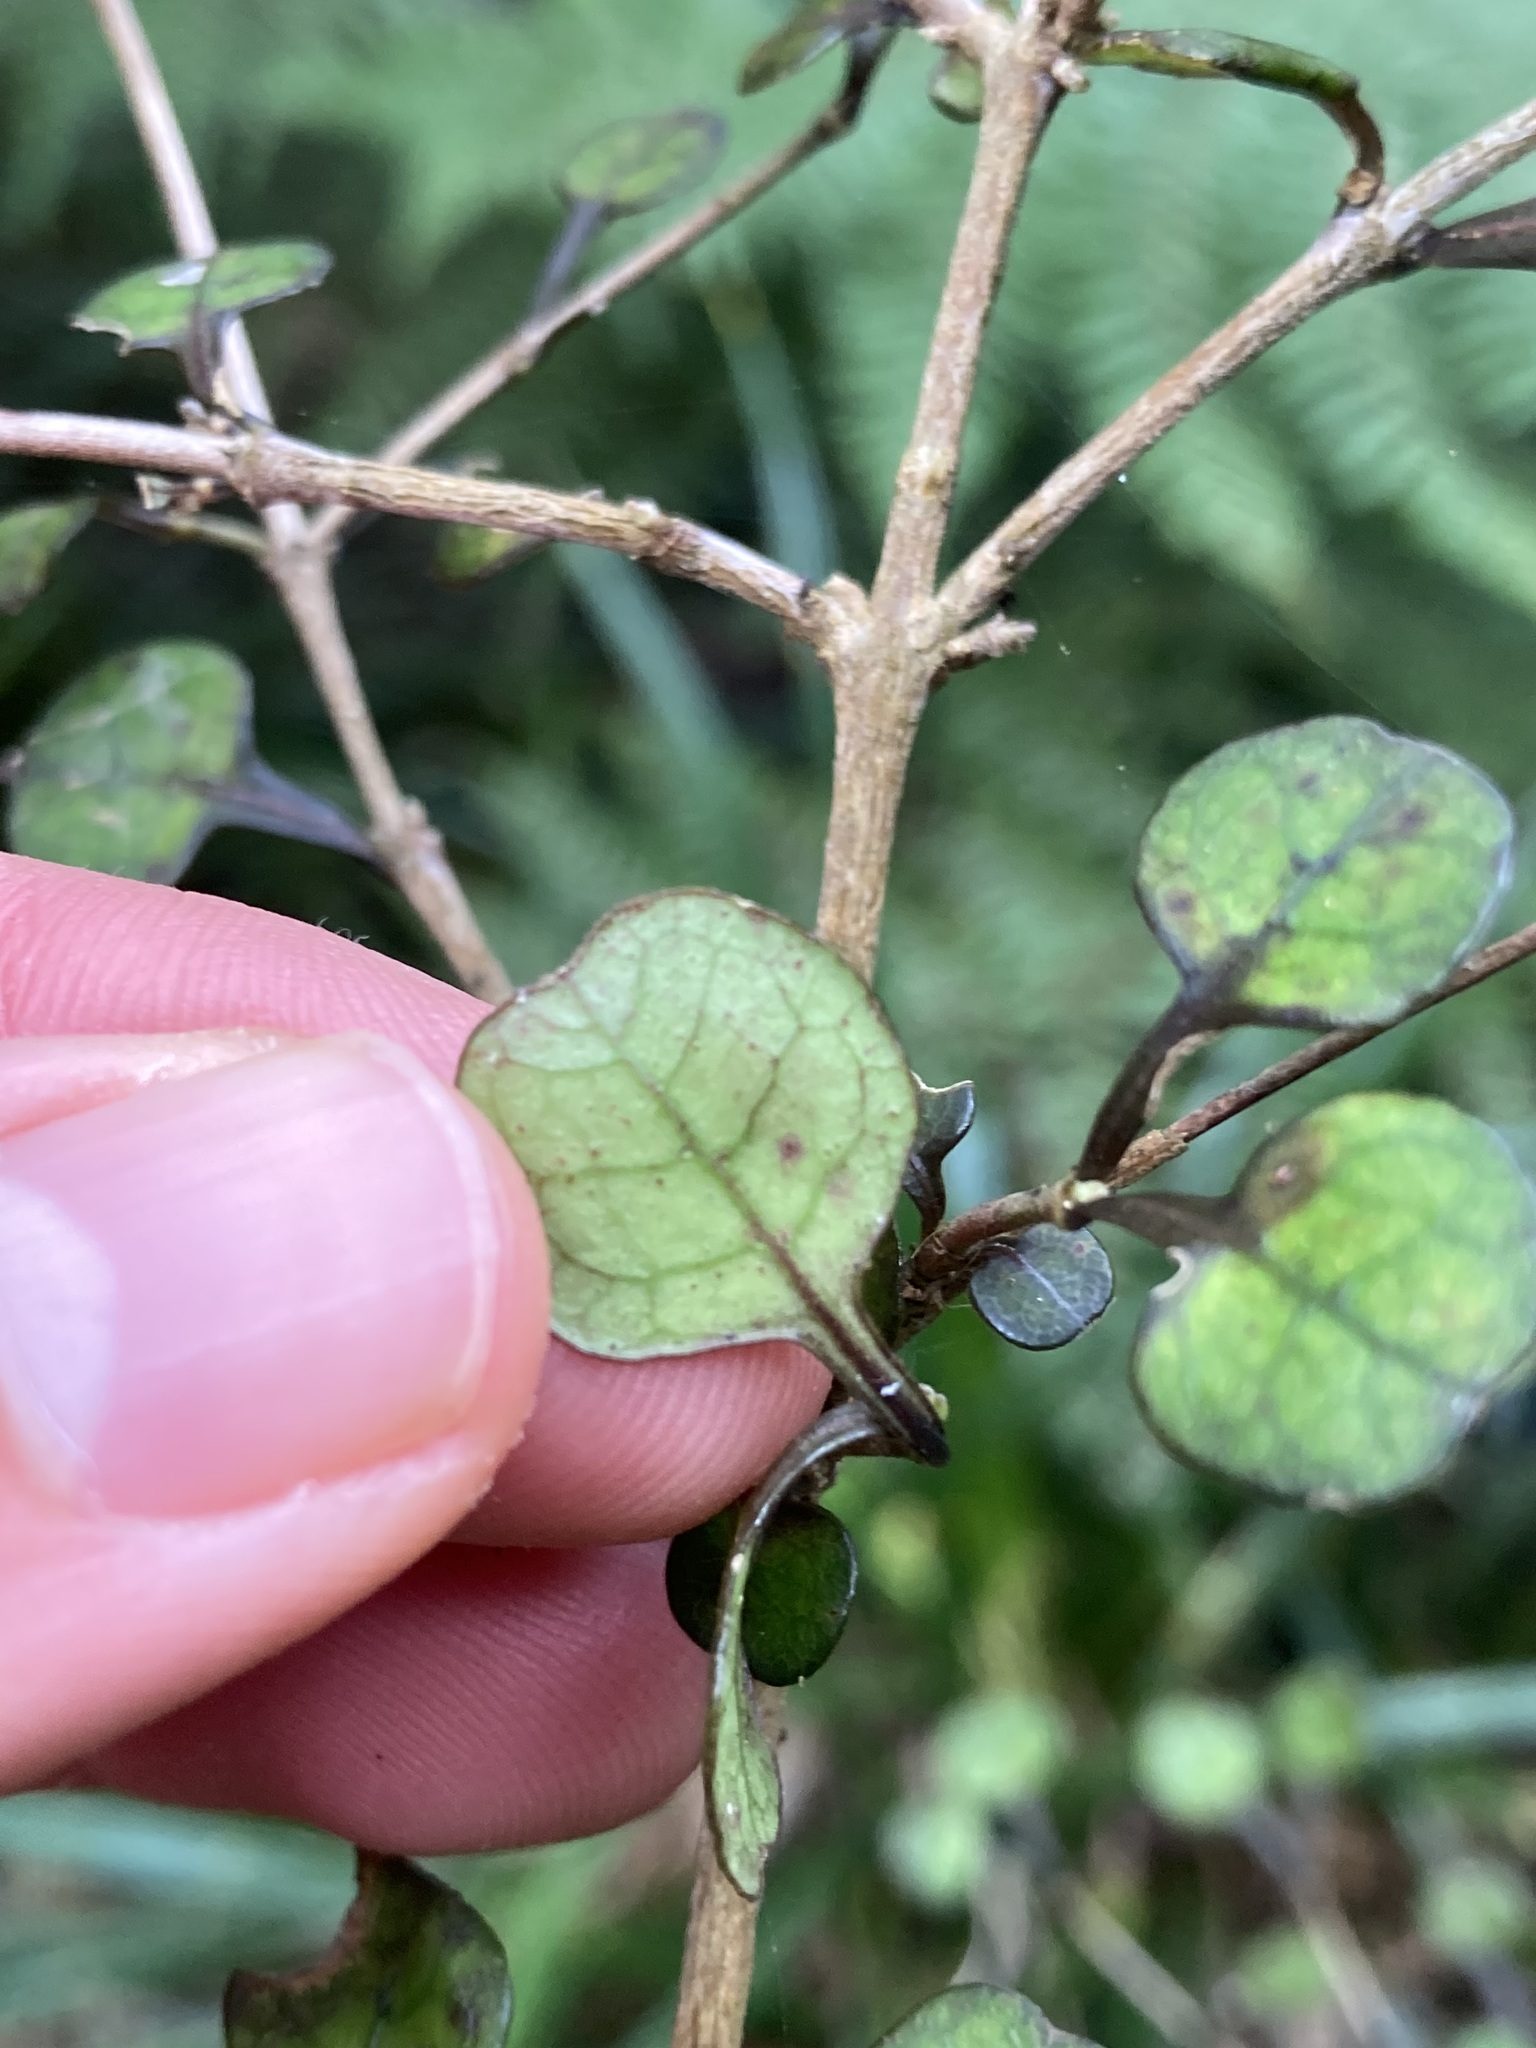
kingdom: Plantae
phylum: Tracheophyta
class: Magnoliopsida
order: Gentianales
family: Rubiaceae
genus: Coprosma
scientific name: Coprosma spathulata
